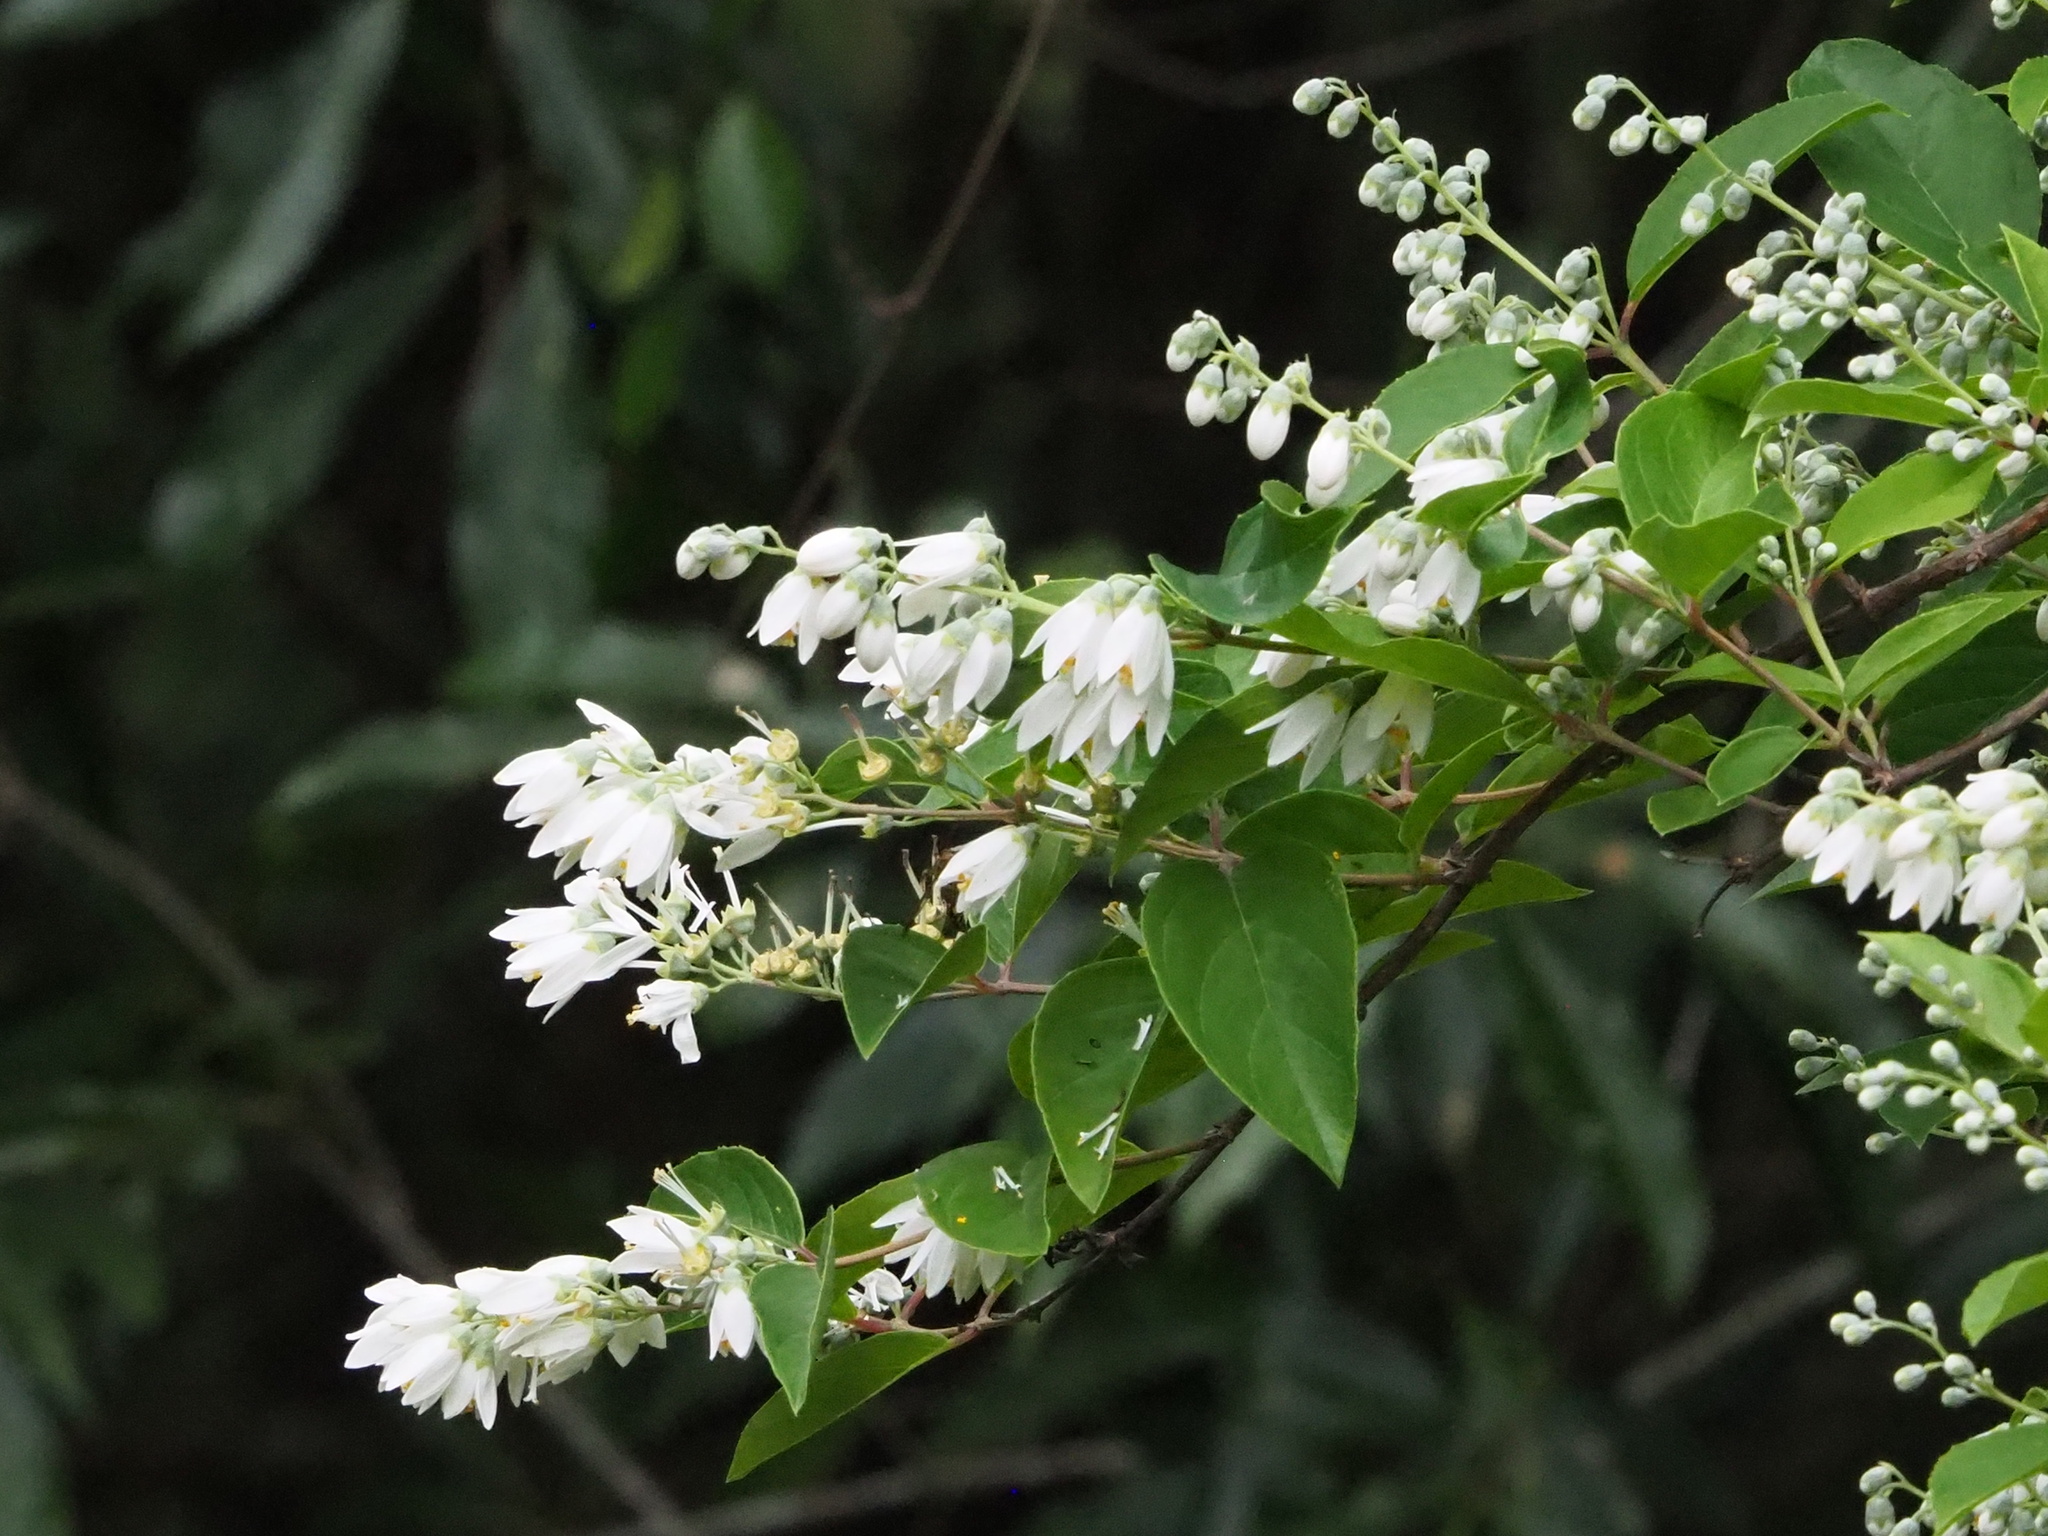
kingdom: Plantae
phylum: Tracheophyta
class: Magnoliopsida
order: Cornales
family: Hydrangeaceae
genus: Deutzia
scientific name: Deutzia pulchra
